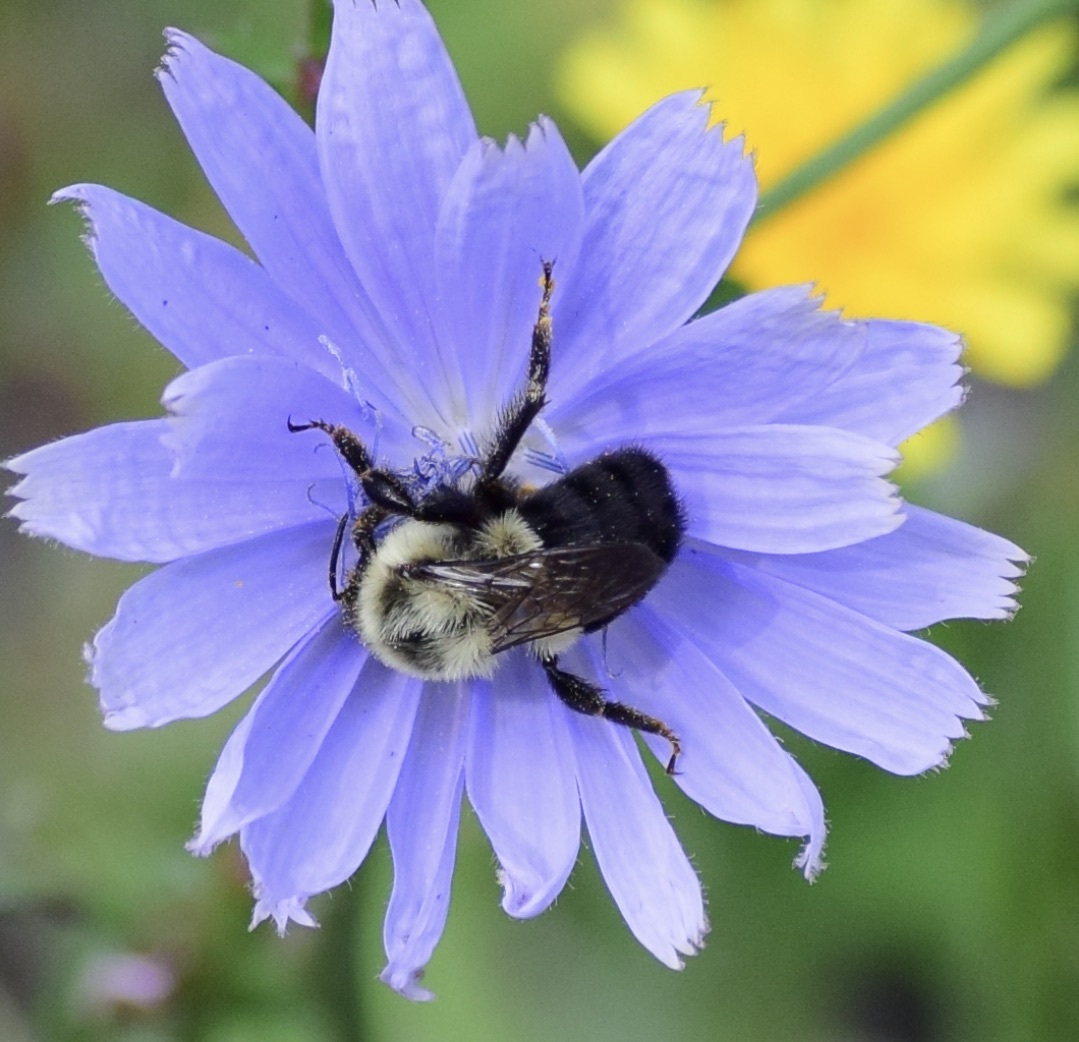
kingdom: Animalia
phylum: Arthropoda
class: Insecta
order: Hymenoptera
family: Apidae
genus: Bombus
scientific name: Bombus impatiens
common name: Common eastern bumble bee
